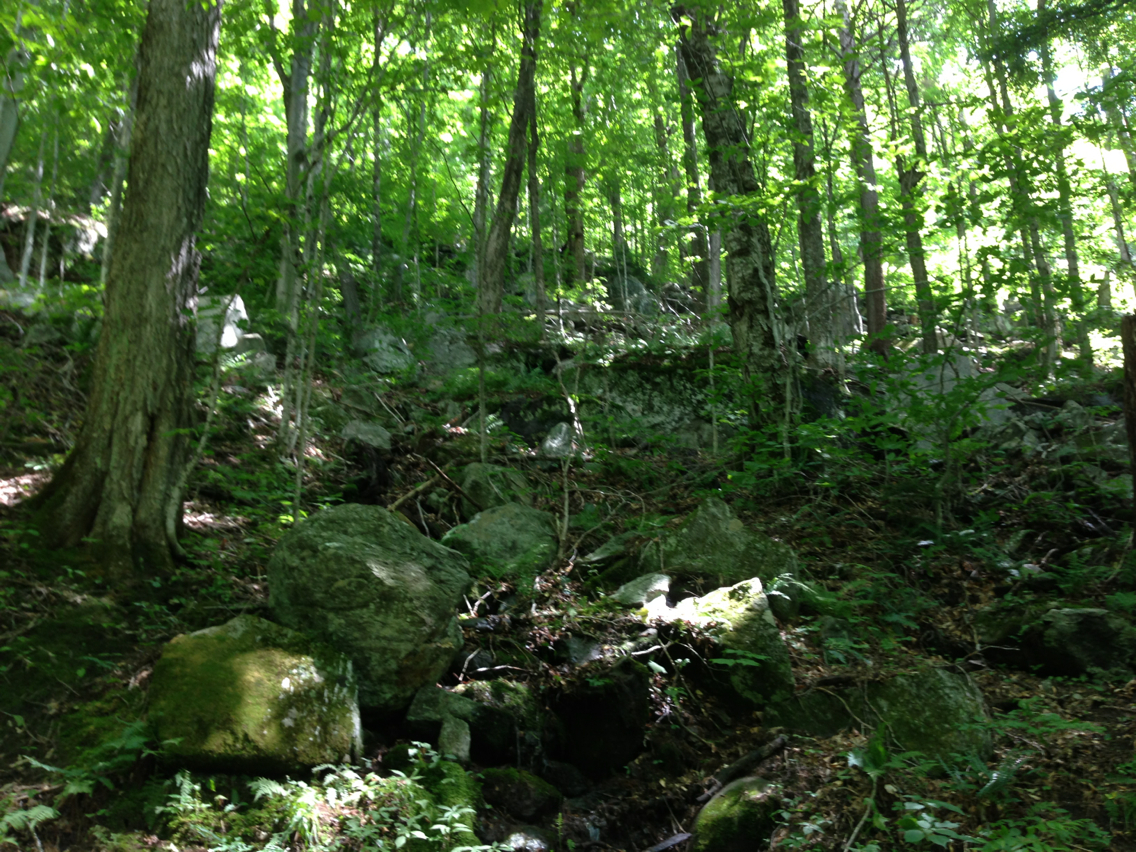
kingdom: Plantae
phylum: Tracheophyta
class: Magnoliopsida
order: Sapindales
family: Sapindaceae
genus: Acer
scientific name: Acer saccharum
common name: Sugar maple
